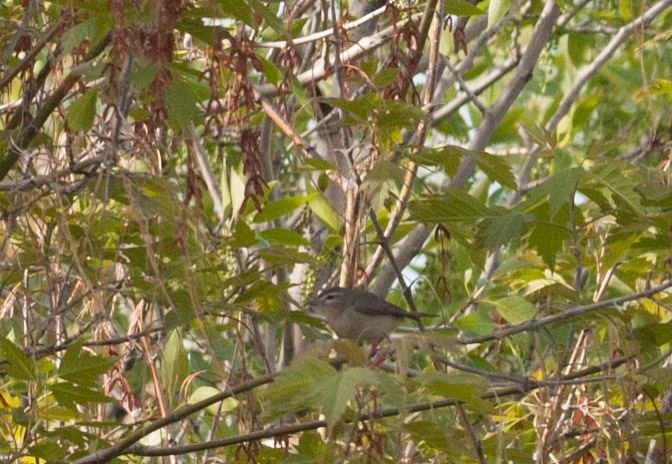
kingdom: Animalia
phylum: Chordata
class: Aves
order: Passeriformes
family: Vireonidae
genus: Vireo
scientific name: Vireo gilvus
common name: Warbling vireo
